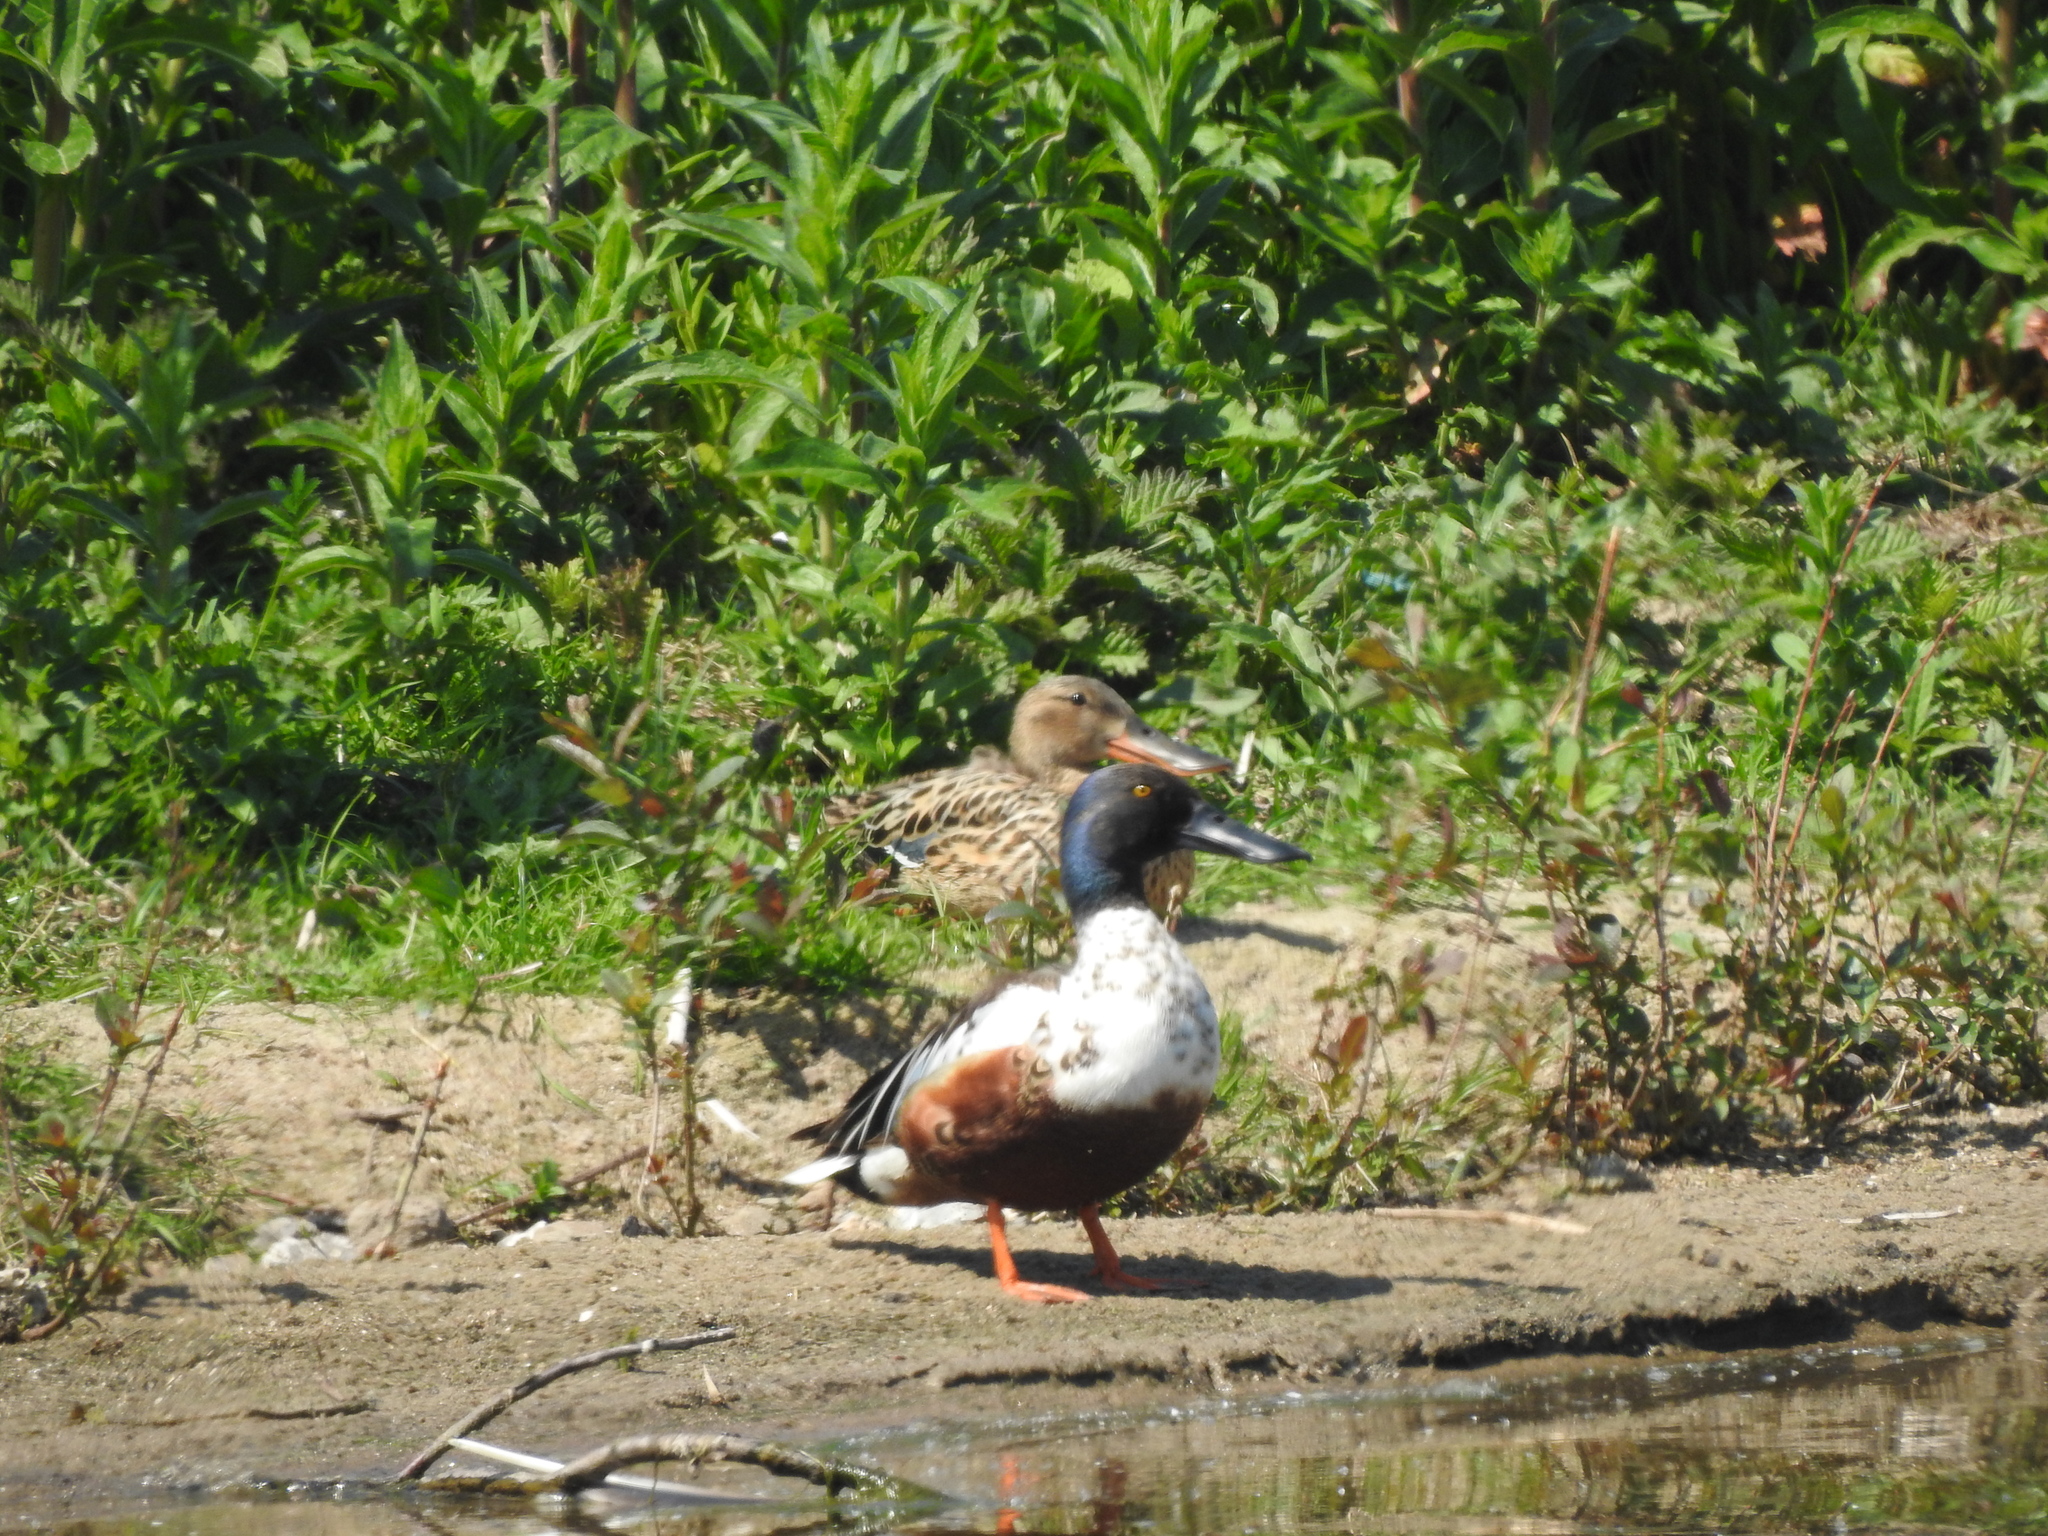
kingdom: Animalia
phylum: Chordata
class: Aves
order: Anseriformes
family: Anatidae
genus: Spatula
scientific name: Spatula clypeata
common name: Northern shoveler
